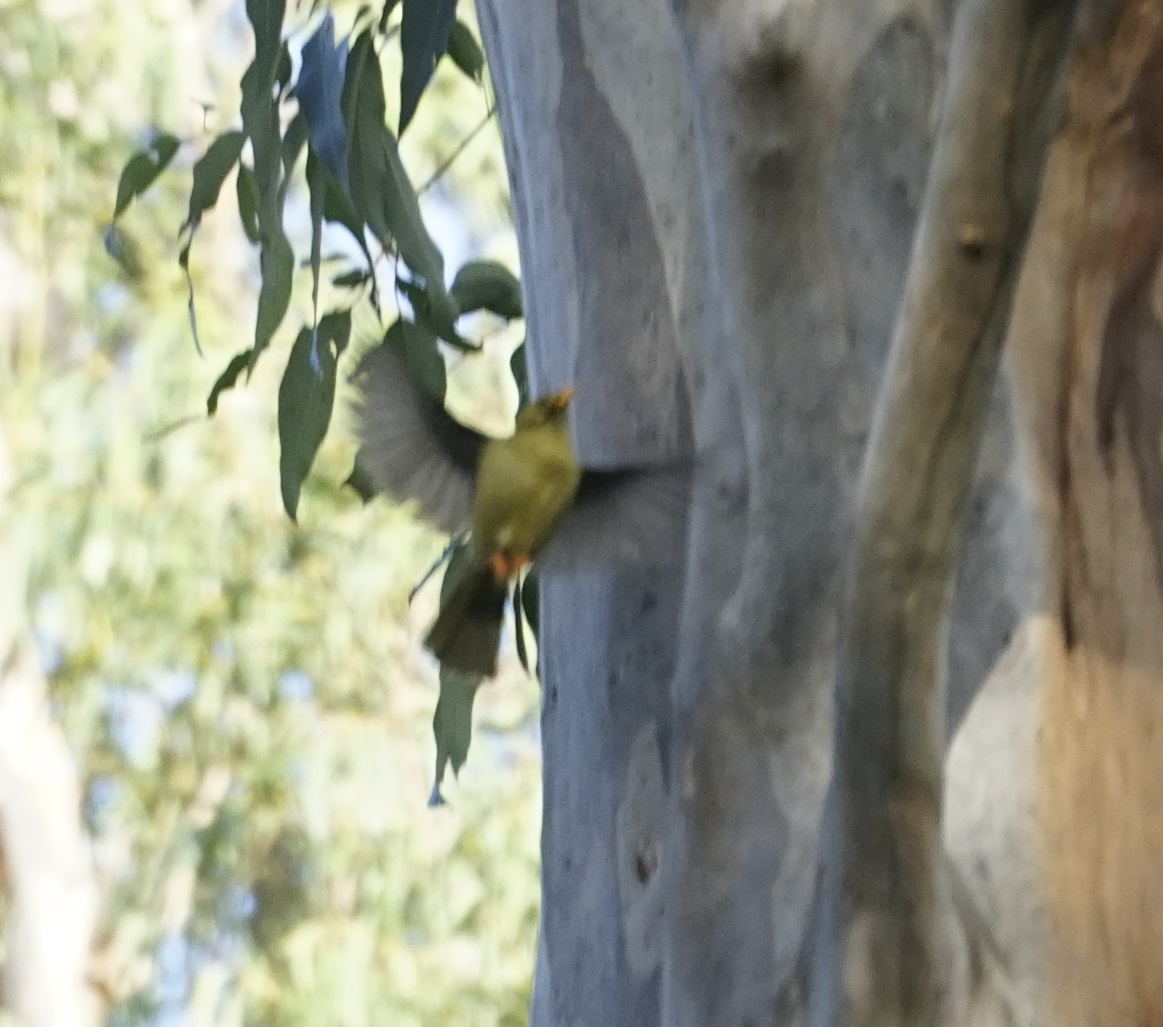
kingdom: Animalia
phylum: Chordata
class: Aves
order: Passeriformes
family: Meliphagidae
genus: Manorina
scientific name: Manorina melanophrys
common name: Bell miner
